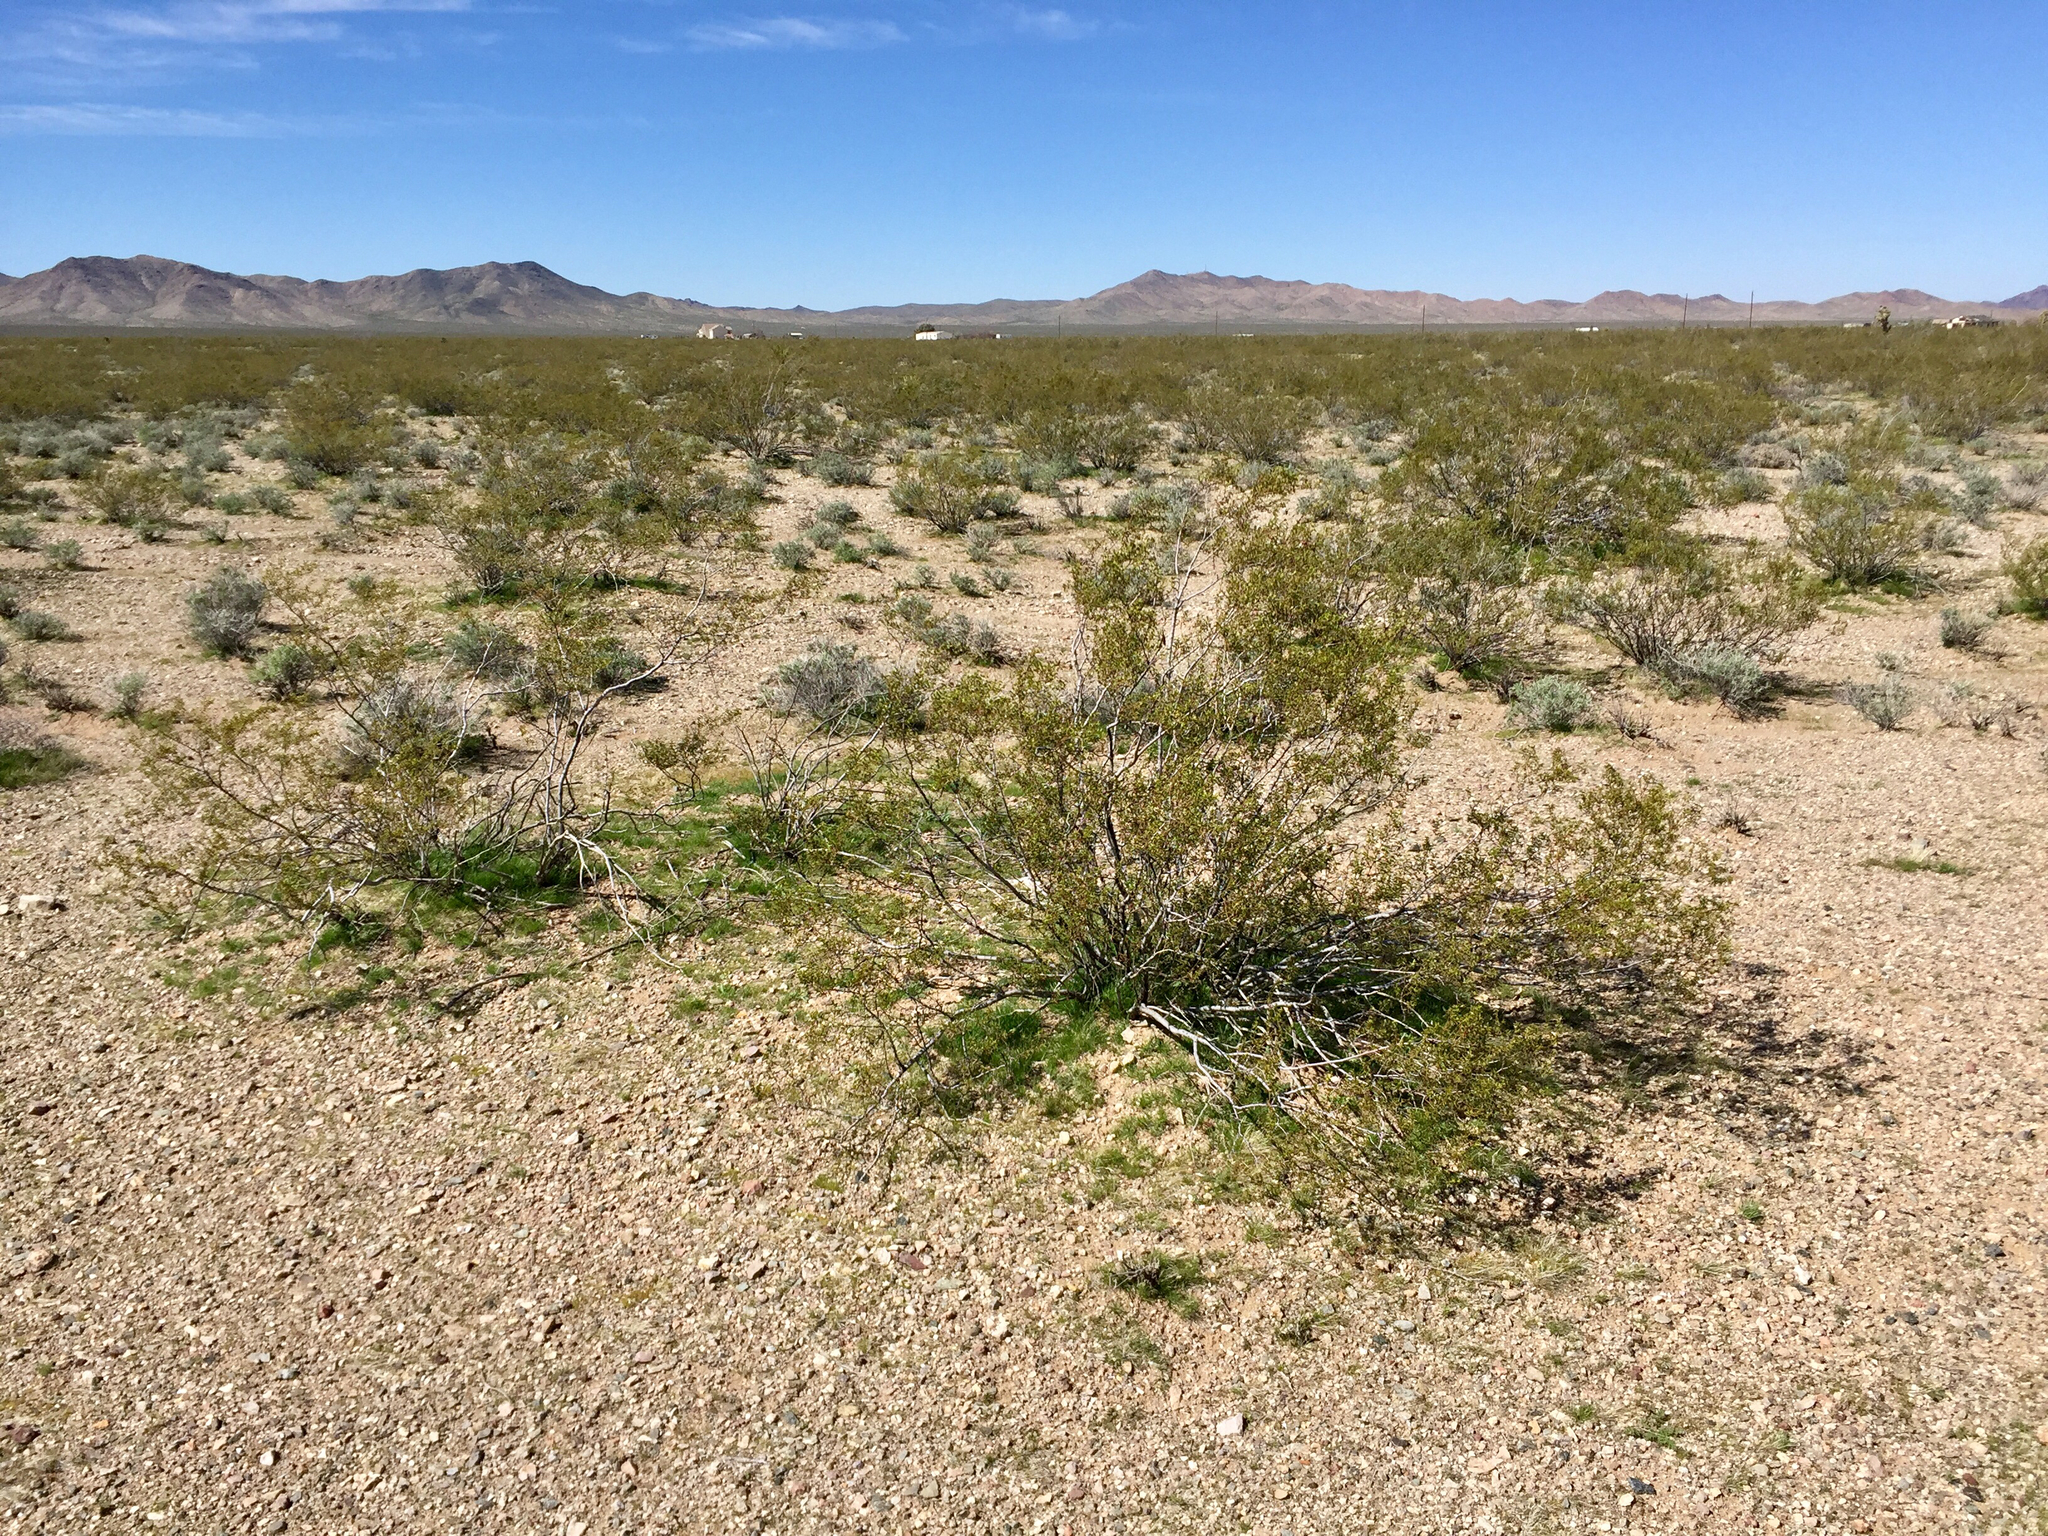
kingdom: Plantae
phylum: Tracheophyta
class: Magnoliopsida
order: Zygophyllales
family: Zygophyllaceae
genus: Larrea
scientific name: Larrea tridentata
